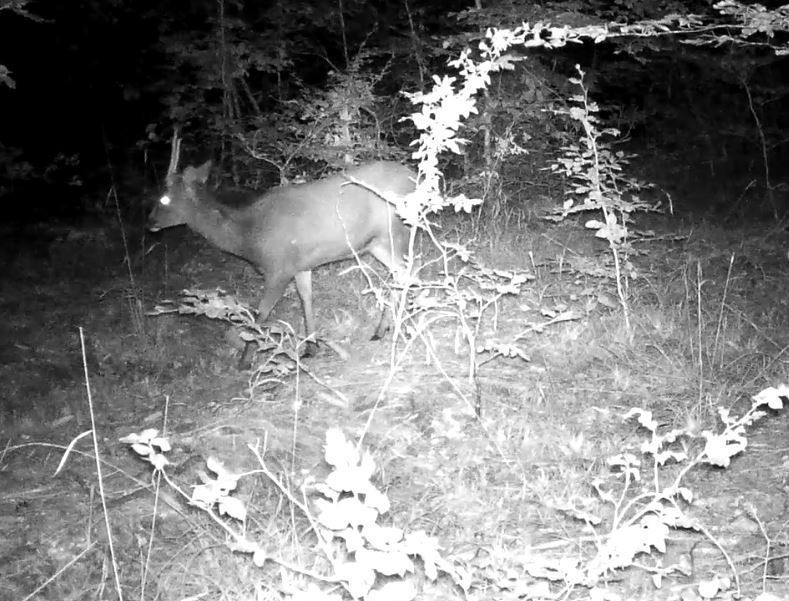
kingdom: Animalia
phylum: Chordata
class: Mammalia
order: Artiodactyla
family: Cervidae
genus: Dama
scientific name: Dama dama
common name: Fallow deer
